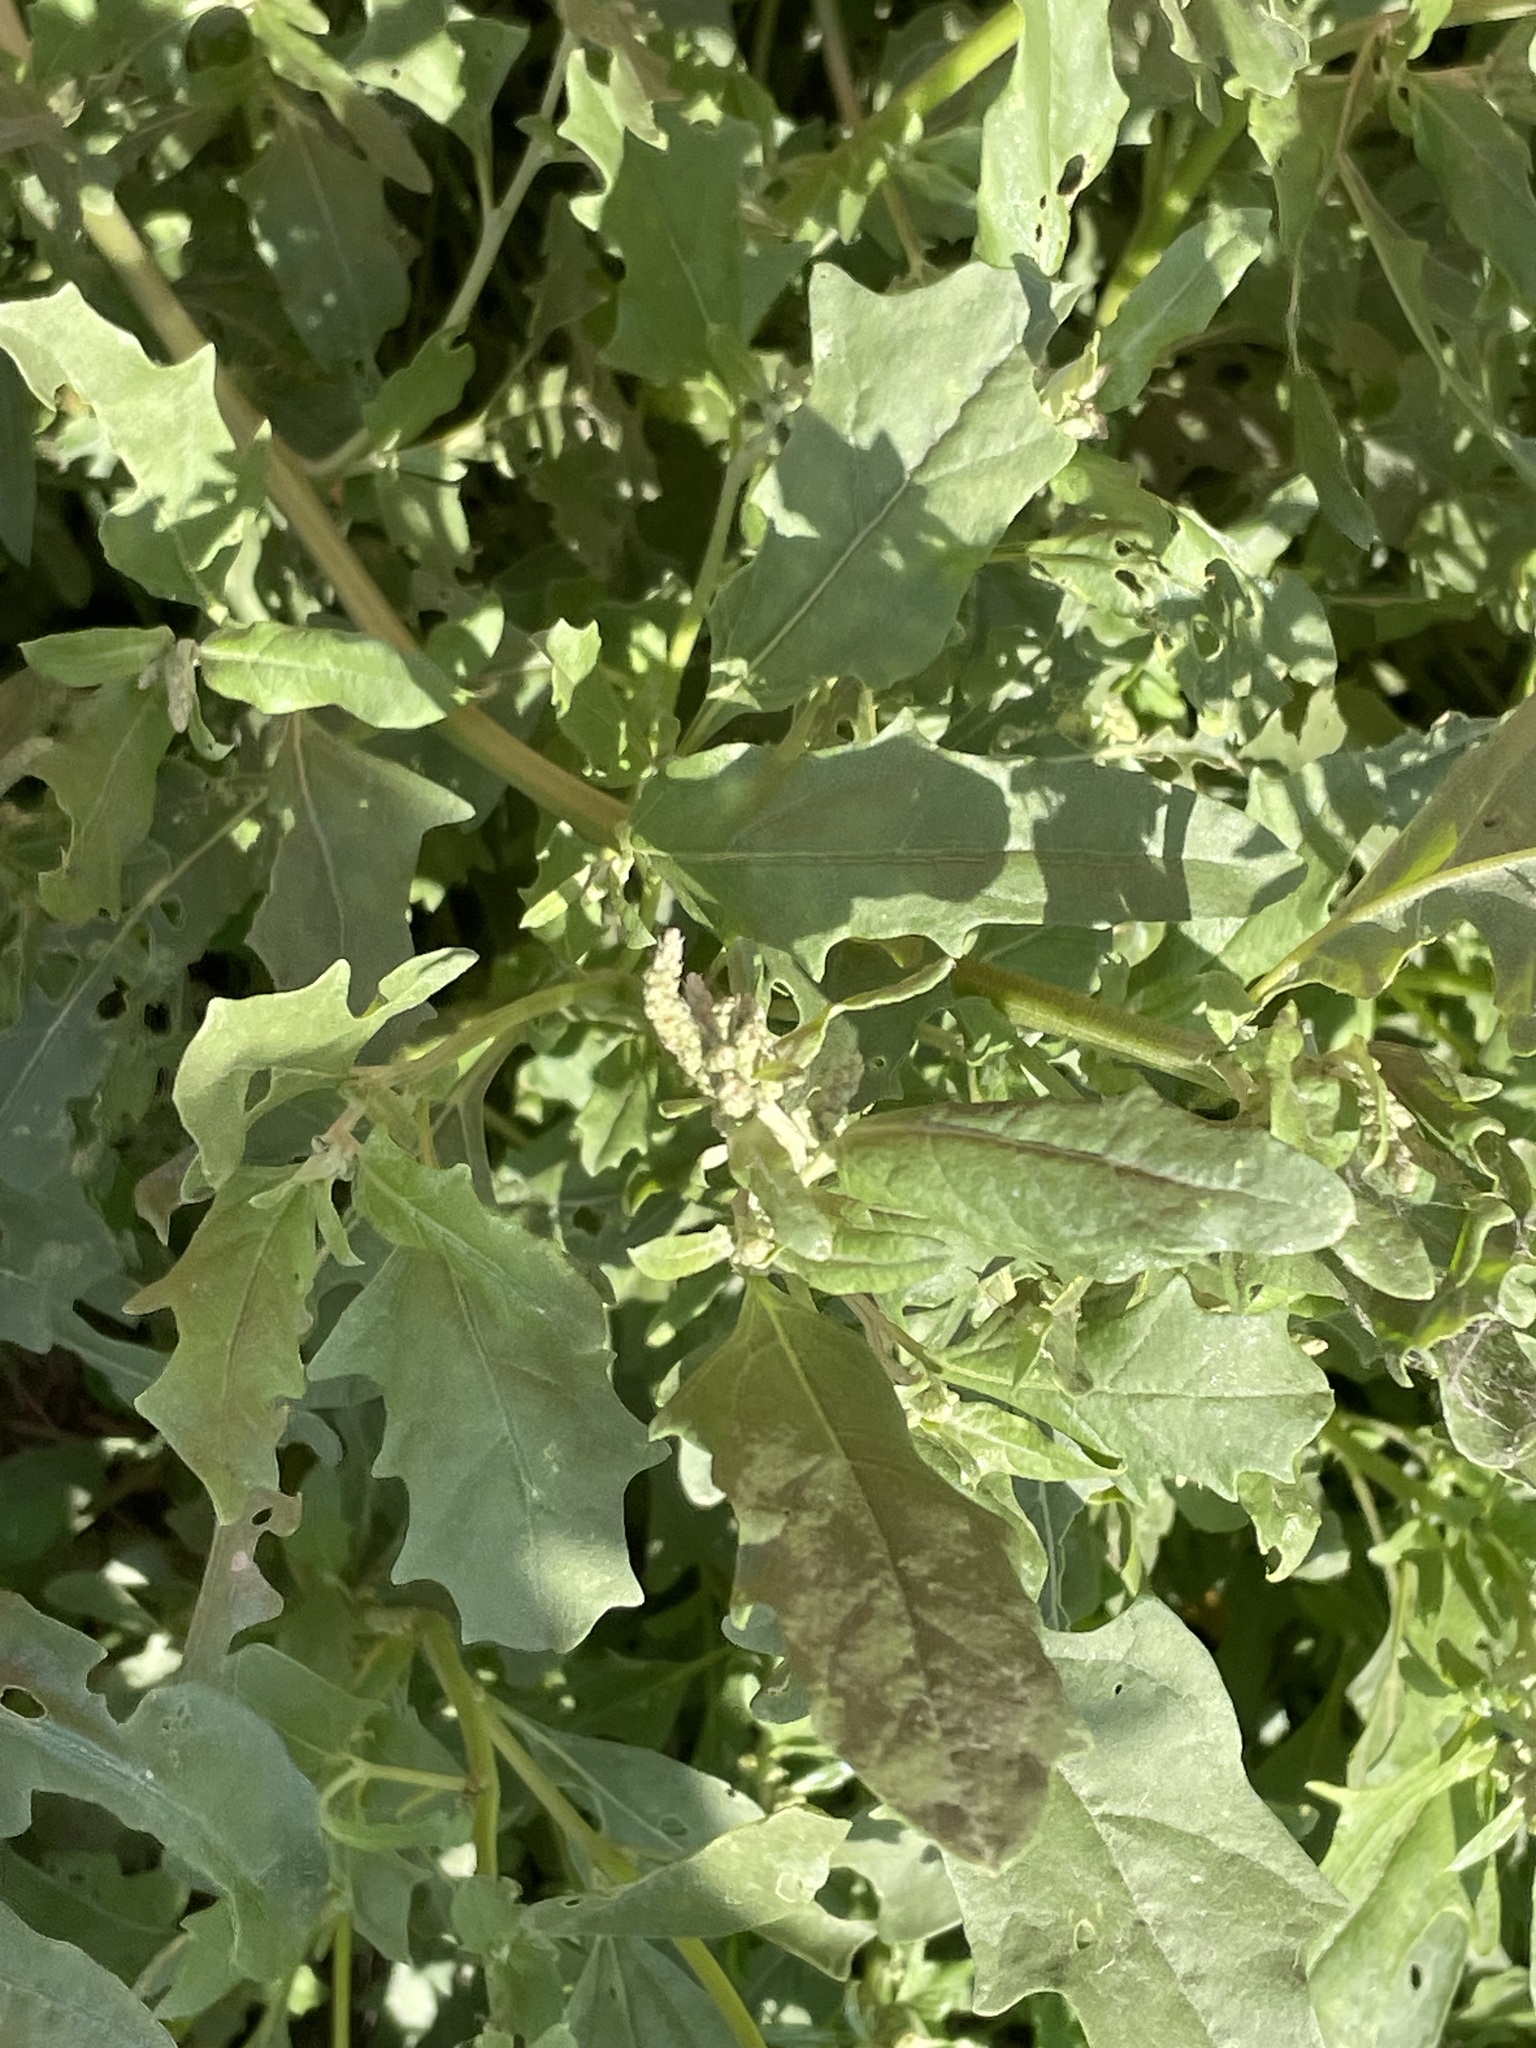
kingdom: Plantae
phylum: Tracheophyta
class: Magnoliopsida
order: Caryophyllales
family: Amaranthaceae
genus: Atriplex
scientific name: Atriplex tatarica
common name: Tatarian orache
